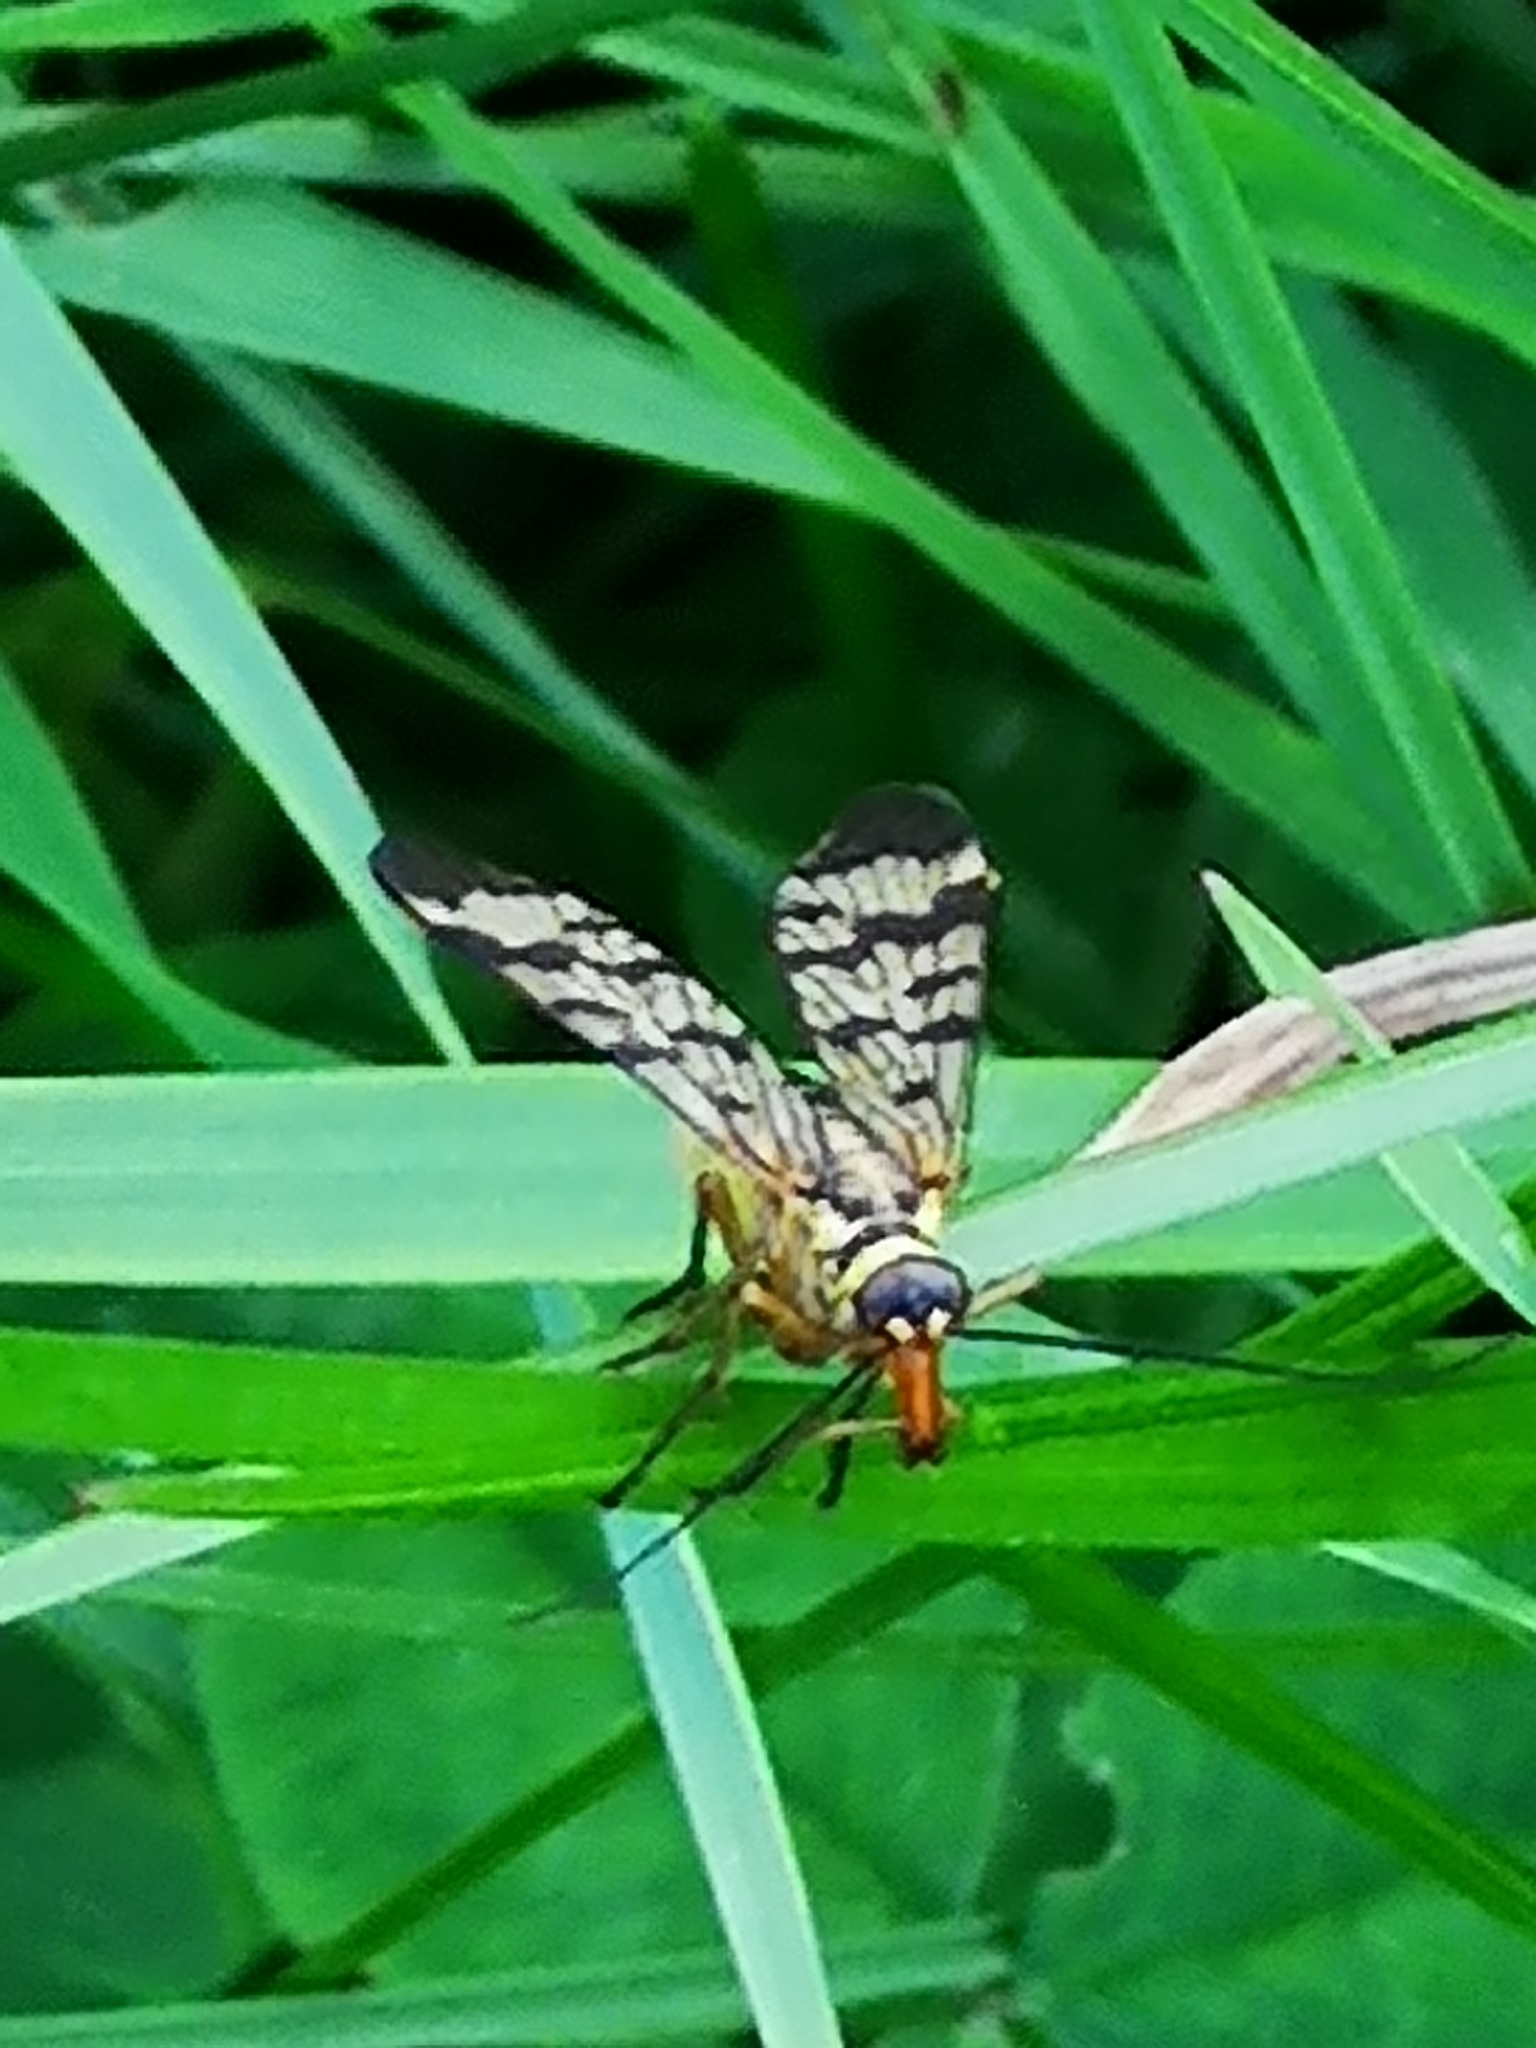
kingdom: Animalia
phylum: Arthropoda
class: Insecta
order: Mecoptera
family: Panorpidae
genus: Panorpa
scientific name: Panorpa communis
